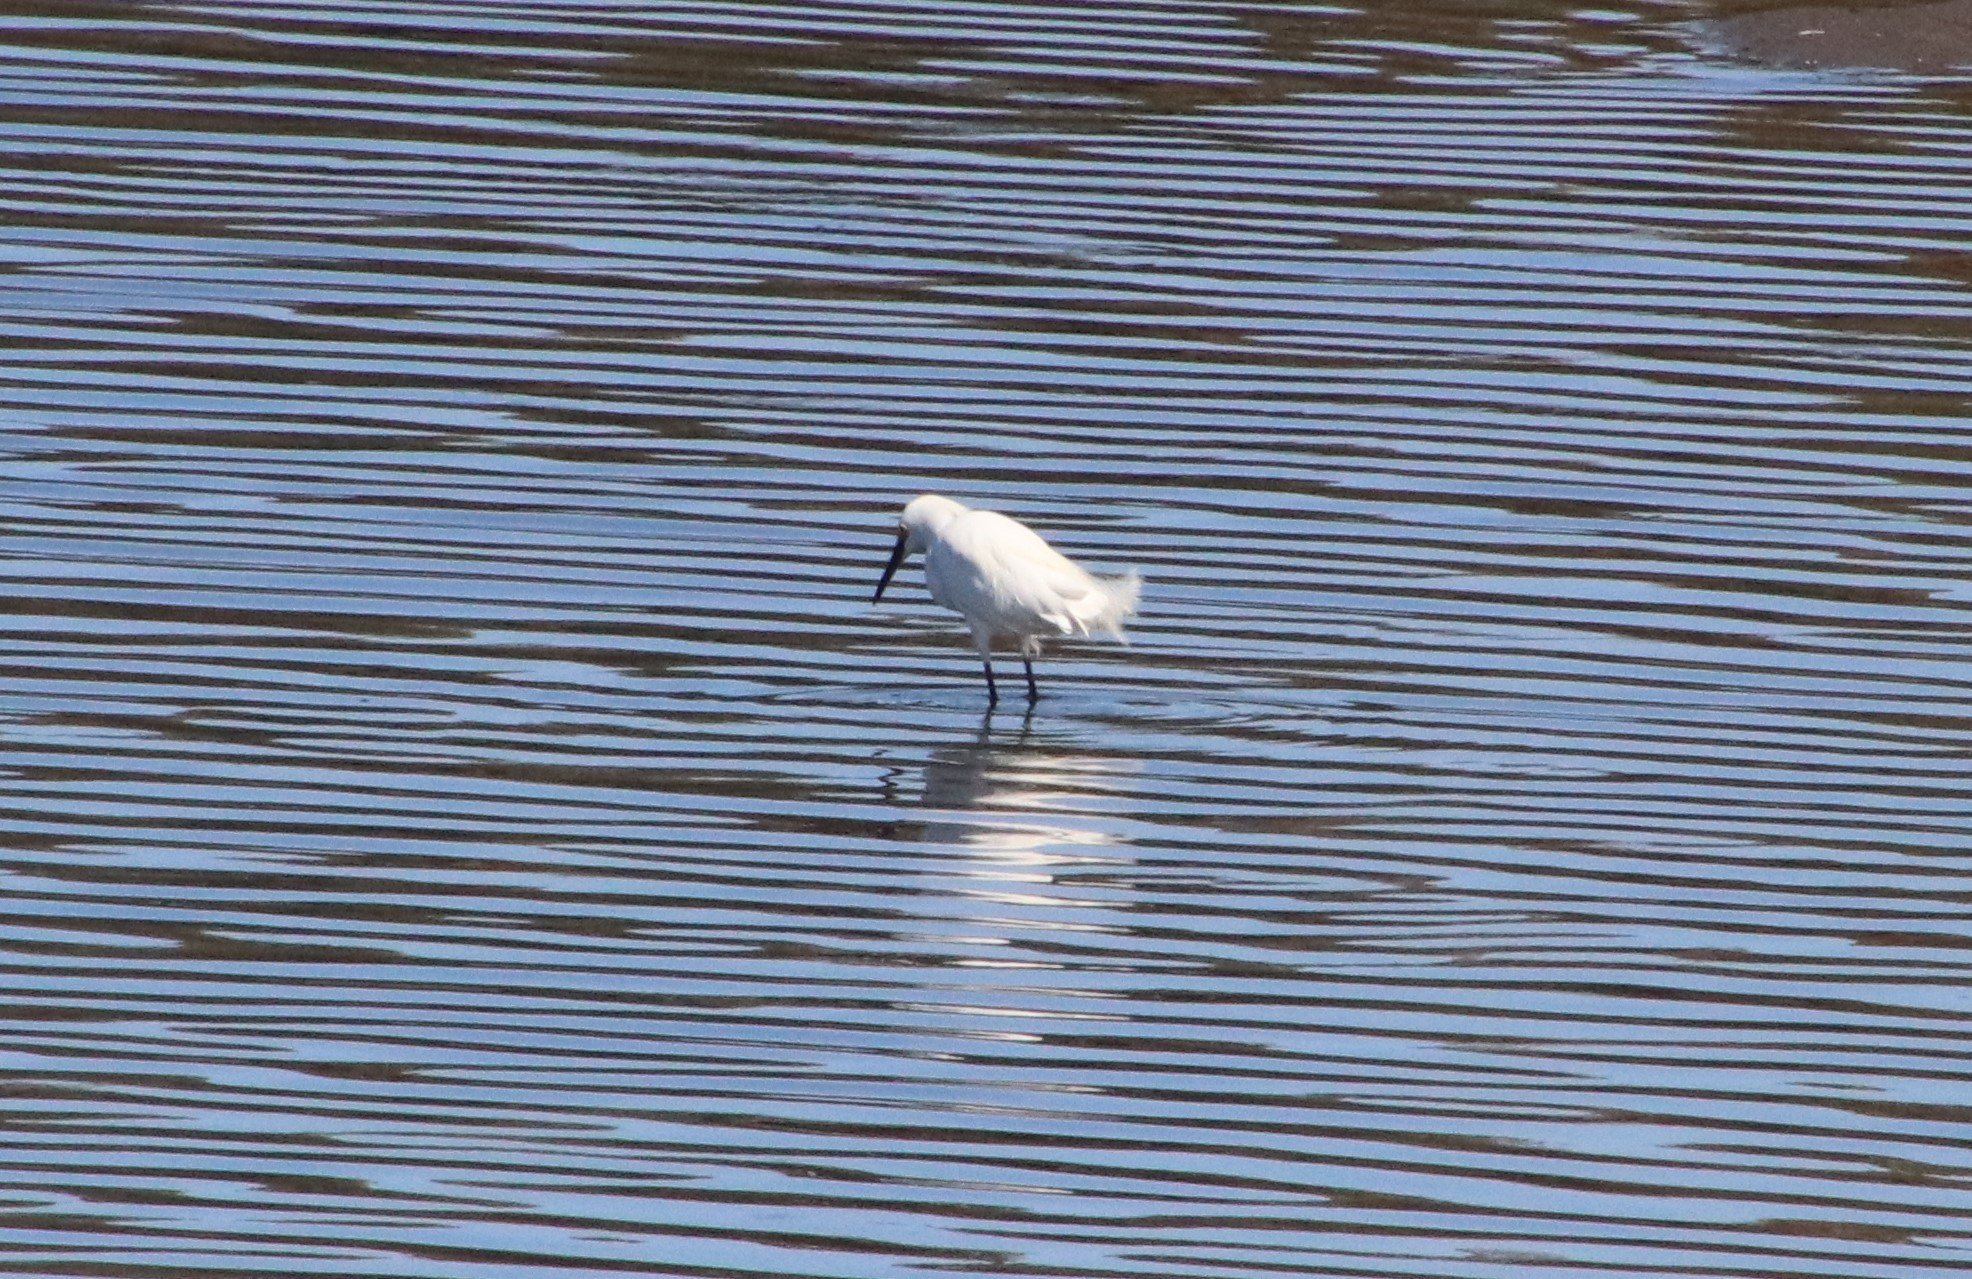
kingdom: Animalia
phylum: Chordata
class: Aves
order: Pelecaniformes
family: Ardeidae
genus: Egretta
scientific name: Egretta thula
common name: Snowy egret
